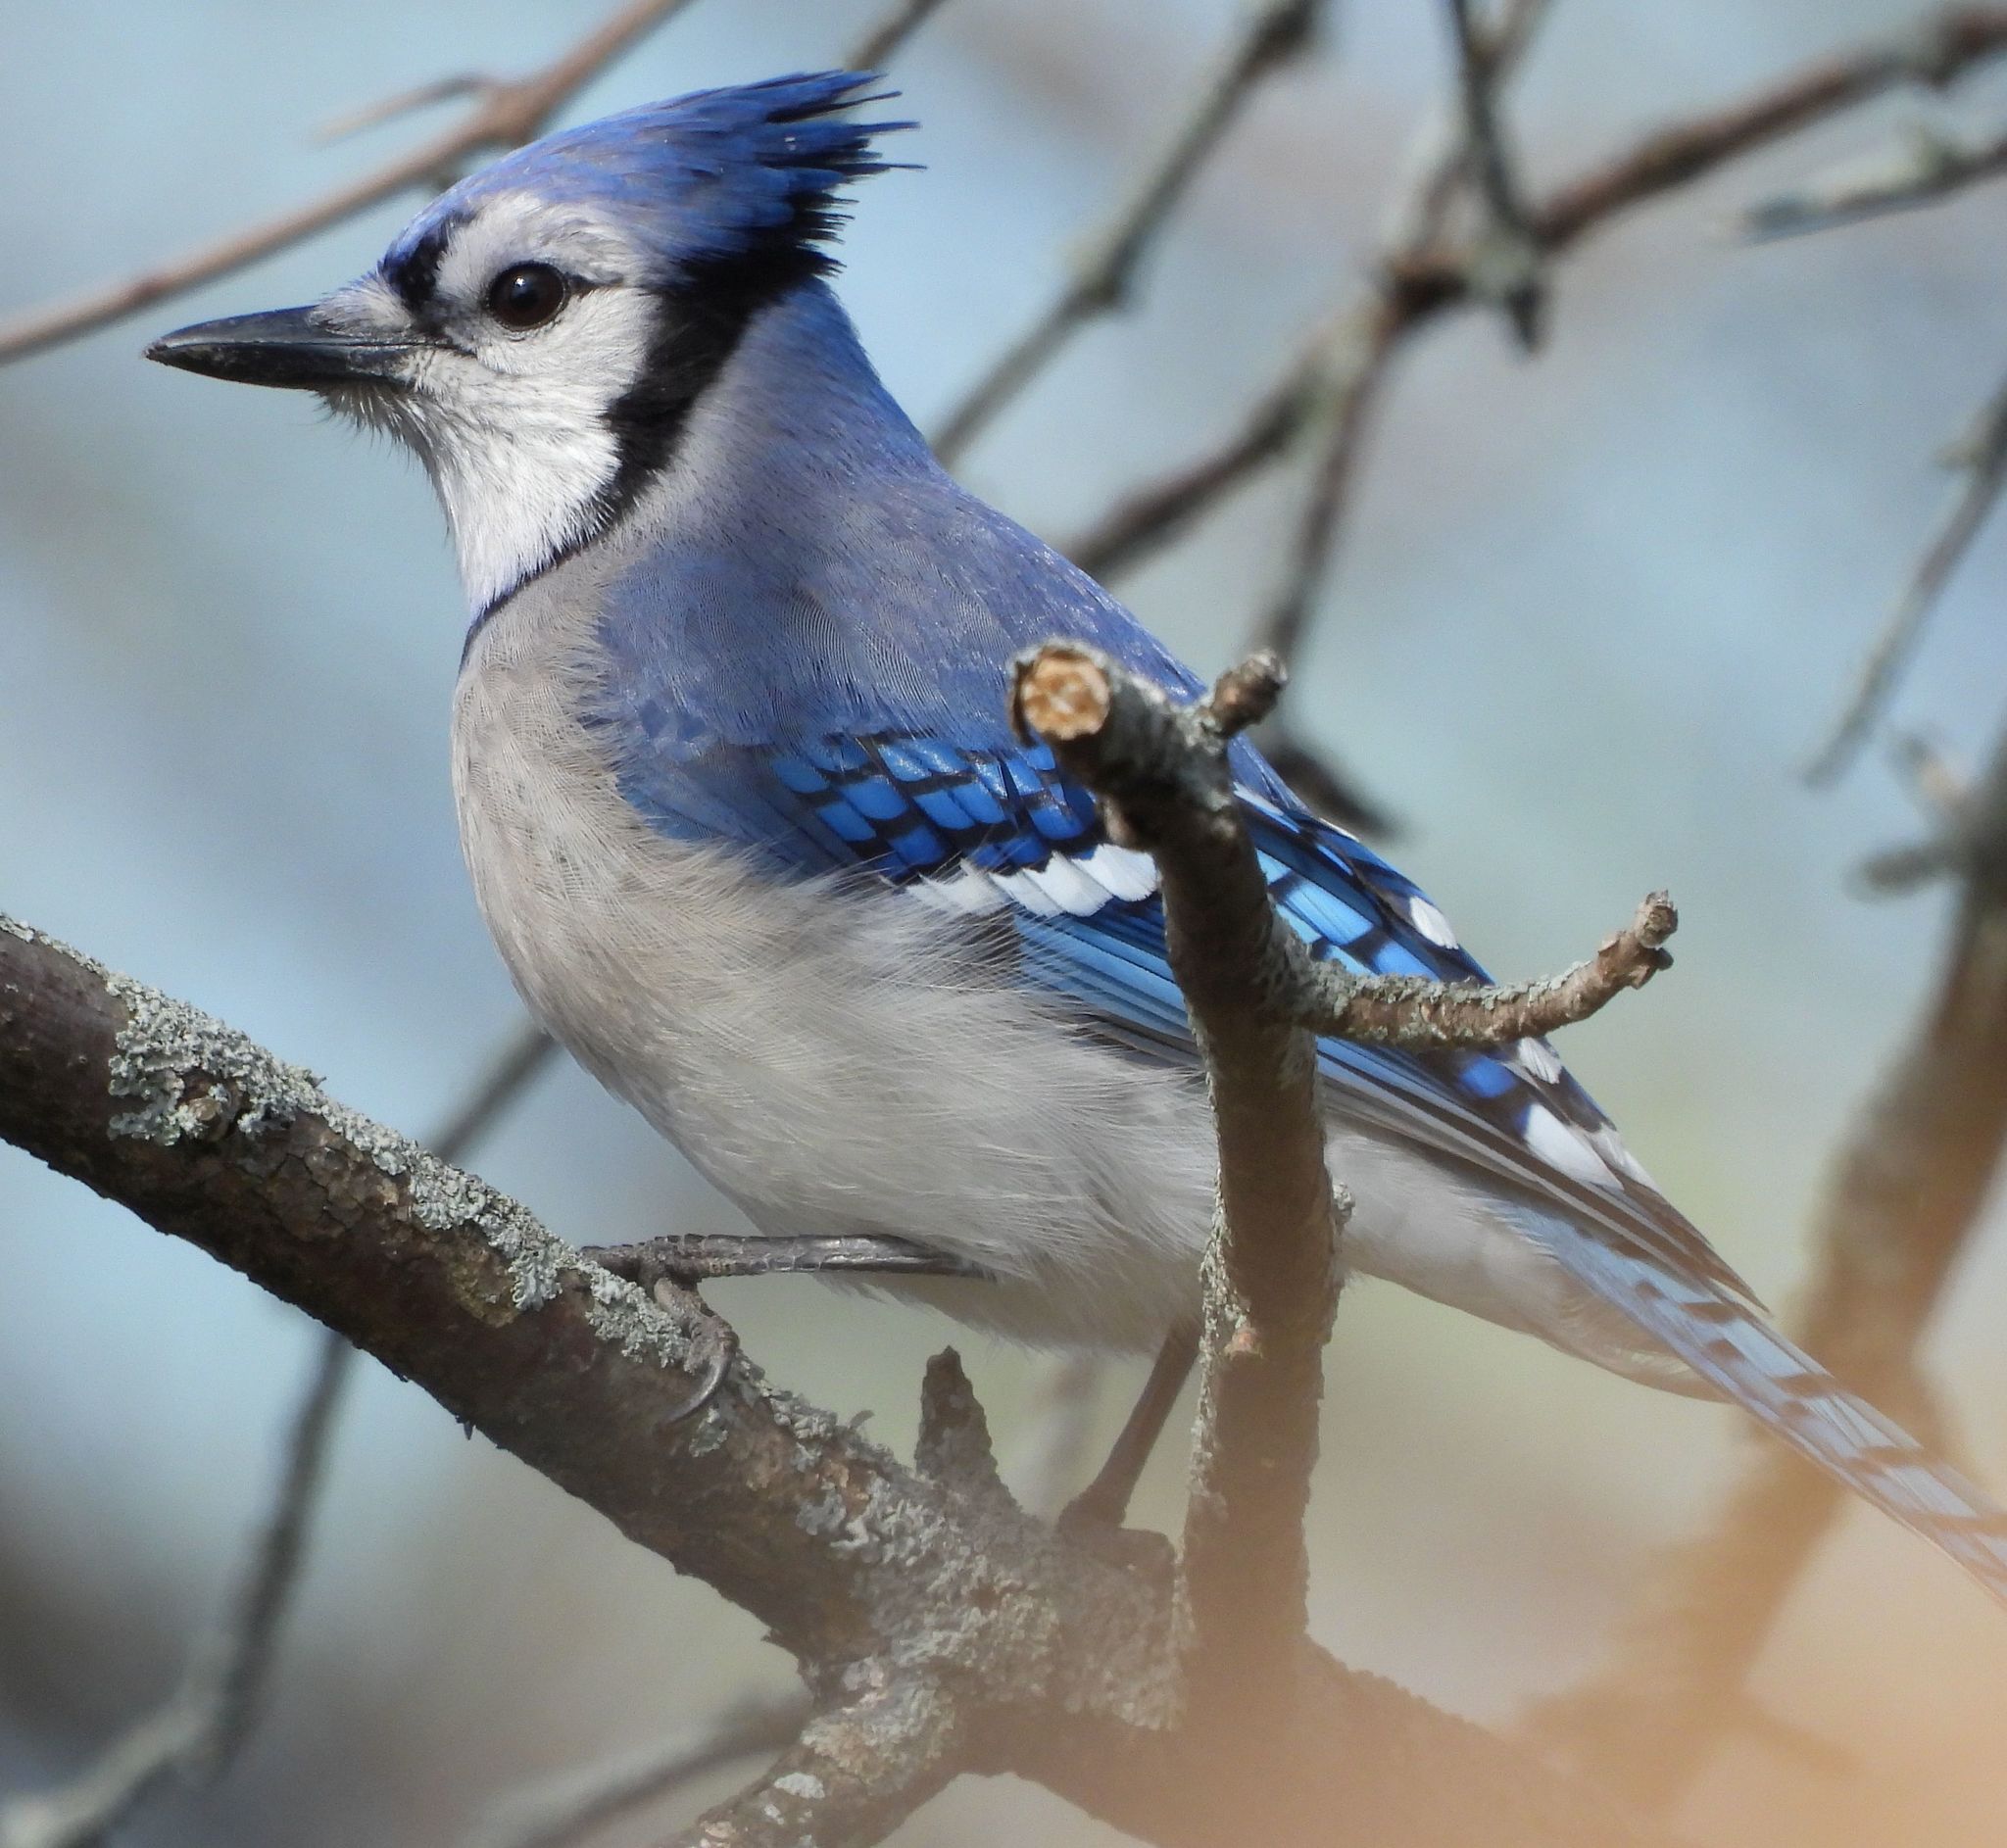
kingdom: Animalia
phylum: Chordata
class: Aves
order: Passeriformes
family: Corvidae
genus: Cyanocitta
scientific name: Cyanocitta cristata
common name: Blue jay
